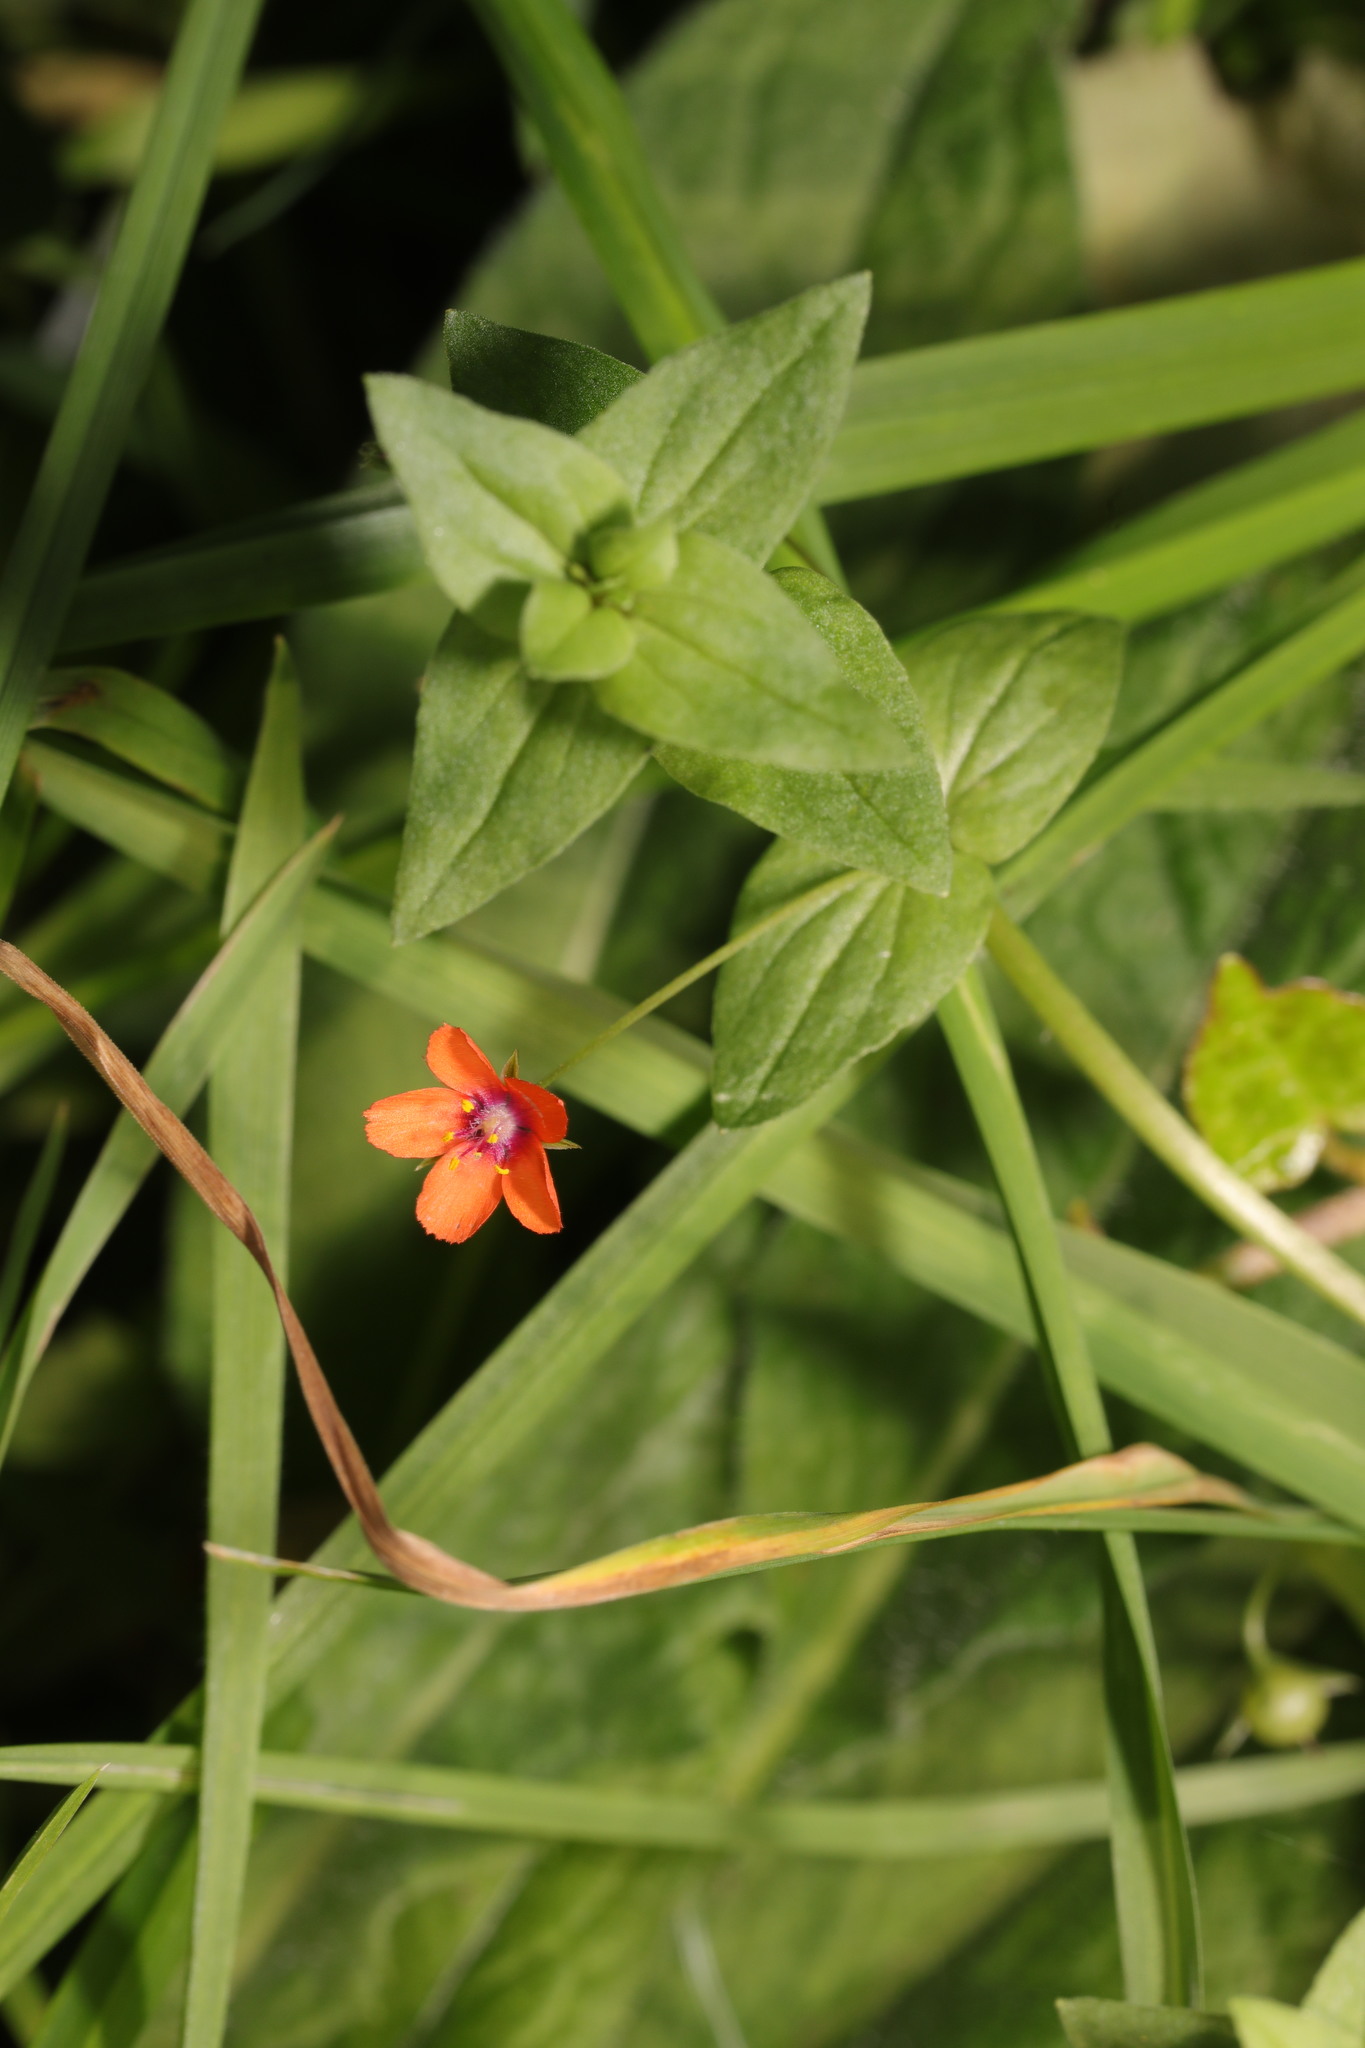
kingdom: Plantae
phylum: Tracheophyta
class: Magnoliopsida
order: Ericales
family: Primulaceae
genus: Lysimachia
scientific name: Lysimachia arvensis
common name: Scarlet pimpernel
